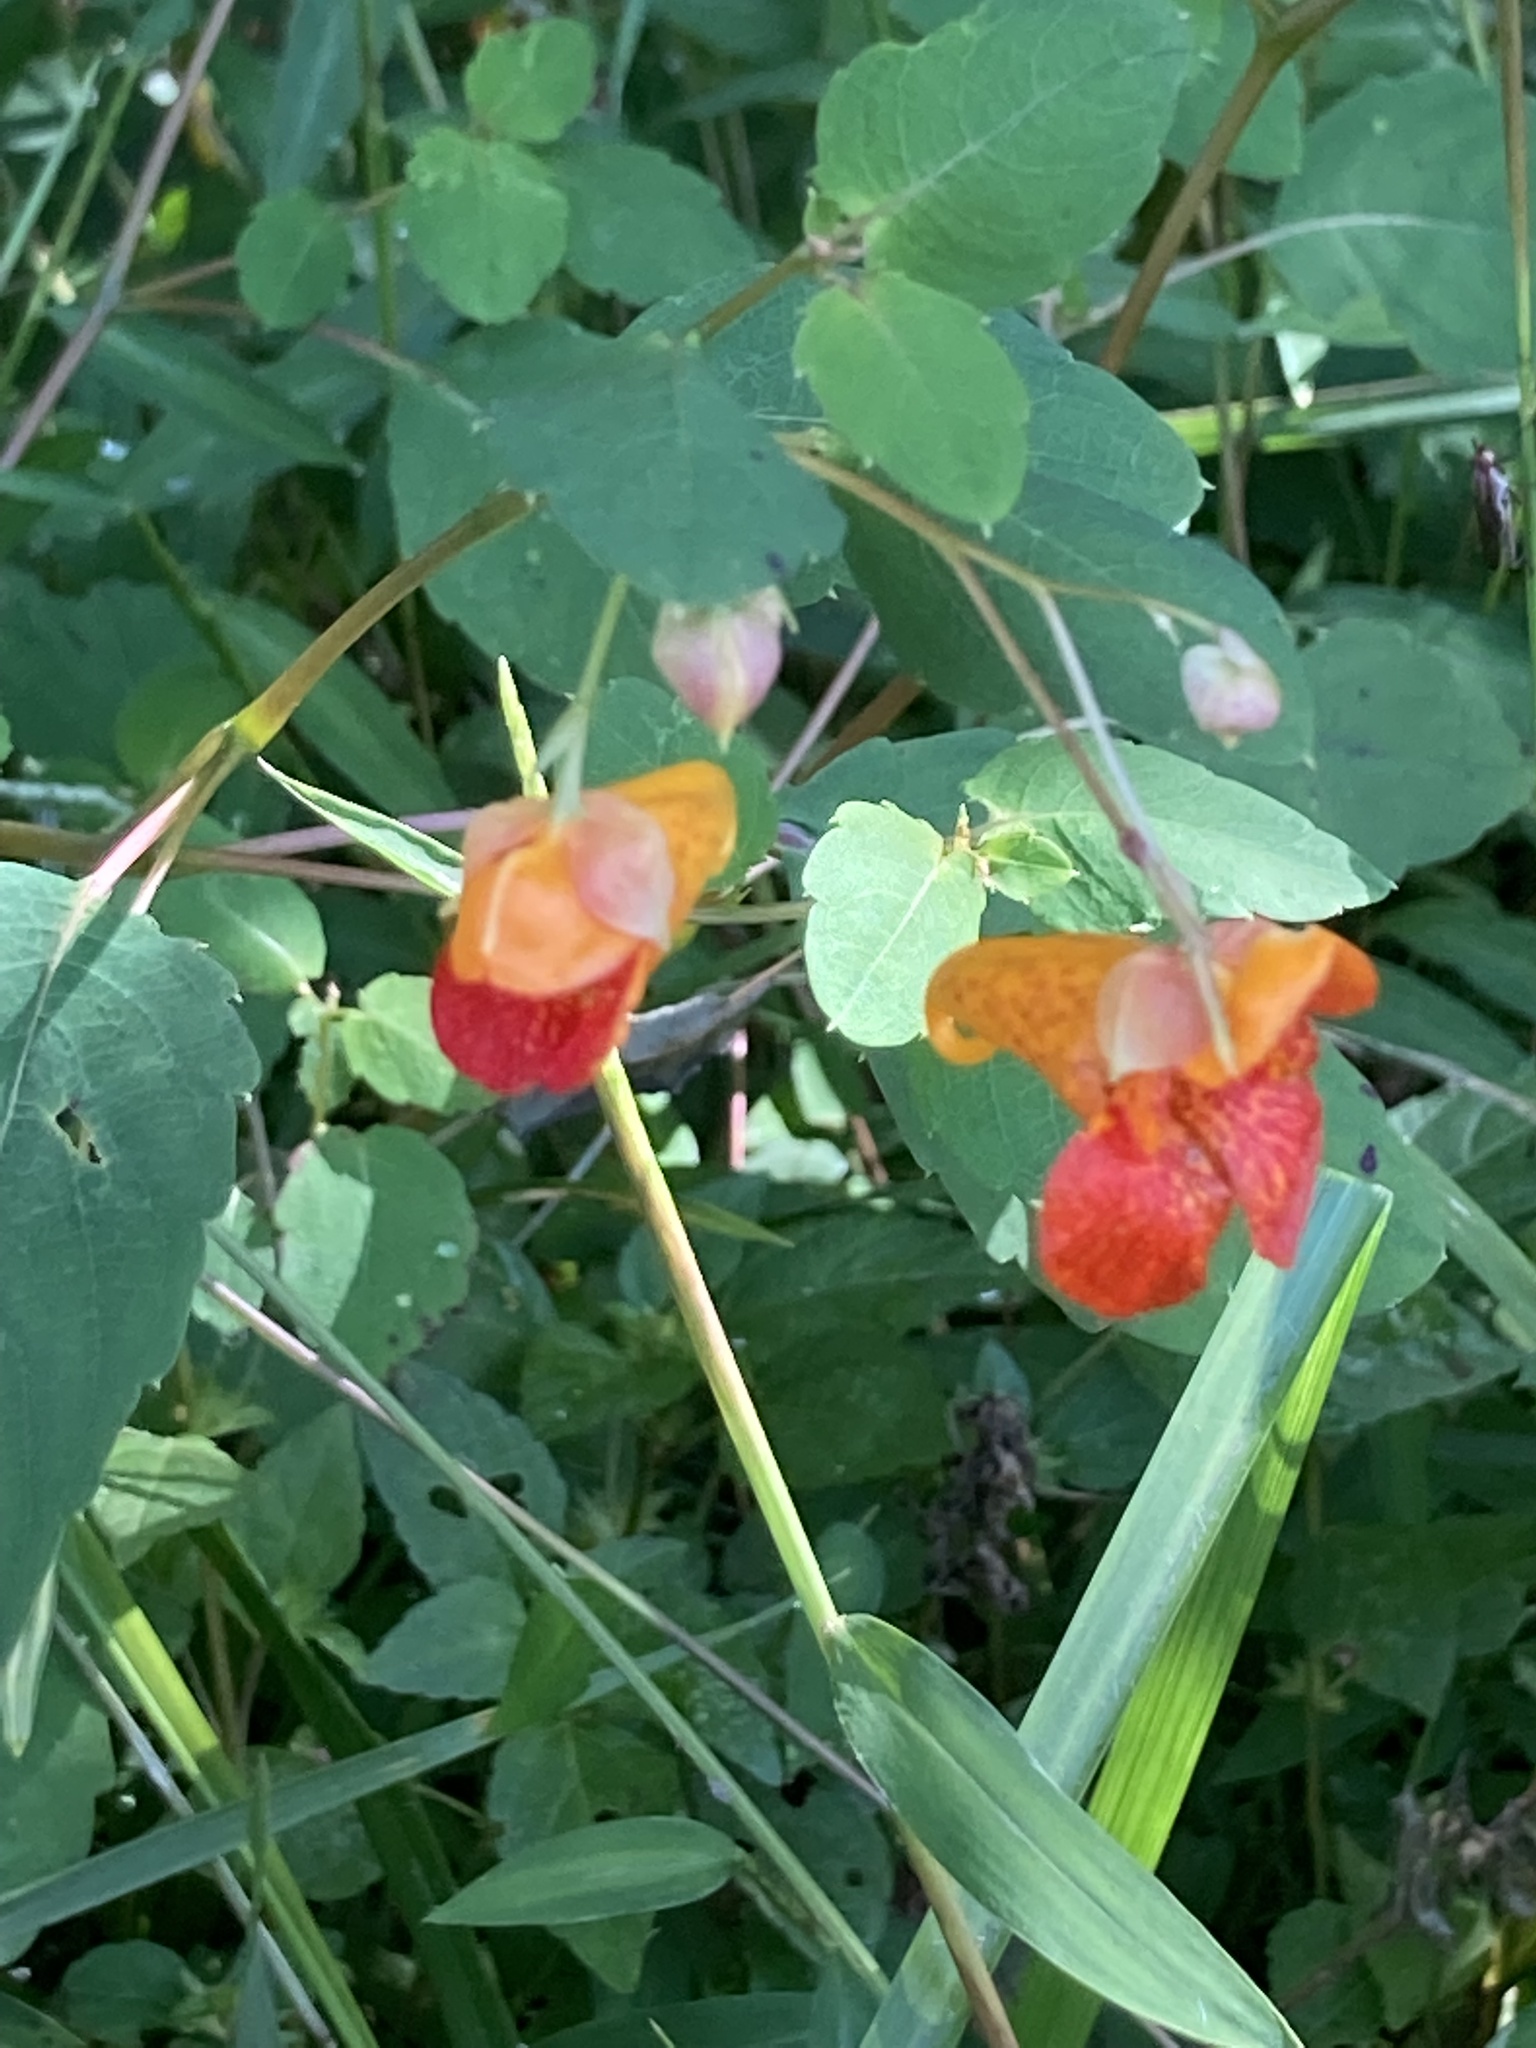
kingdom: Plantae
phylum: Tracheophyta
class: Magnoliopsida
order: Ericales
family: Balsaminaceae
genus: Impatiens
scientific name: Impatiens capensis
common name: Orange balsam
